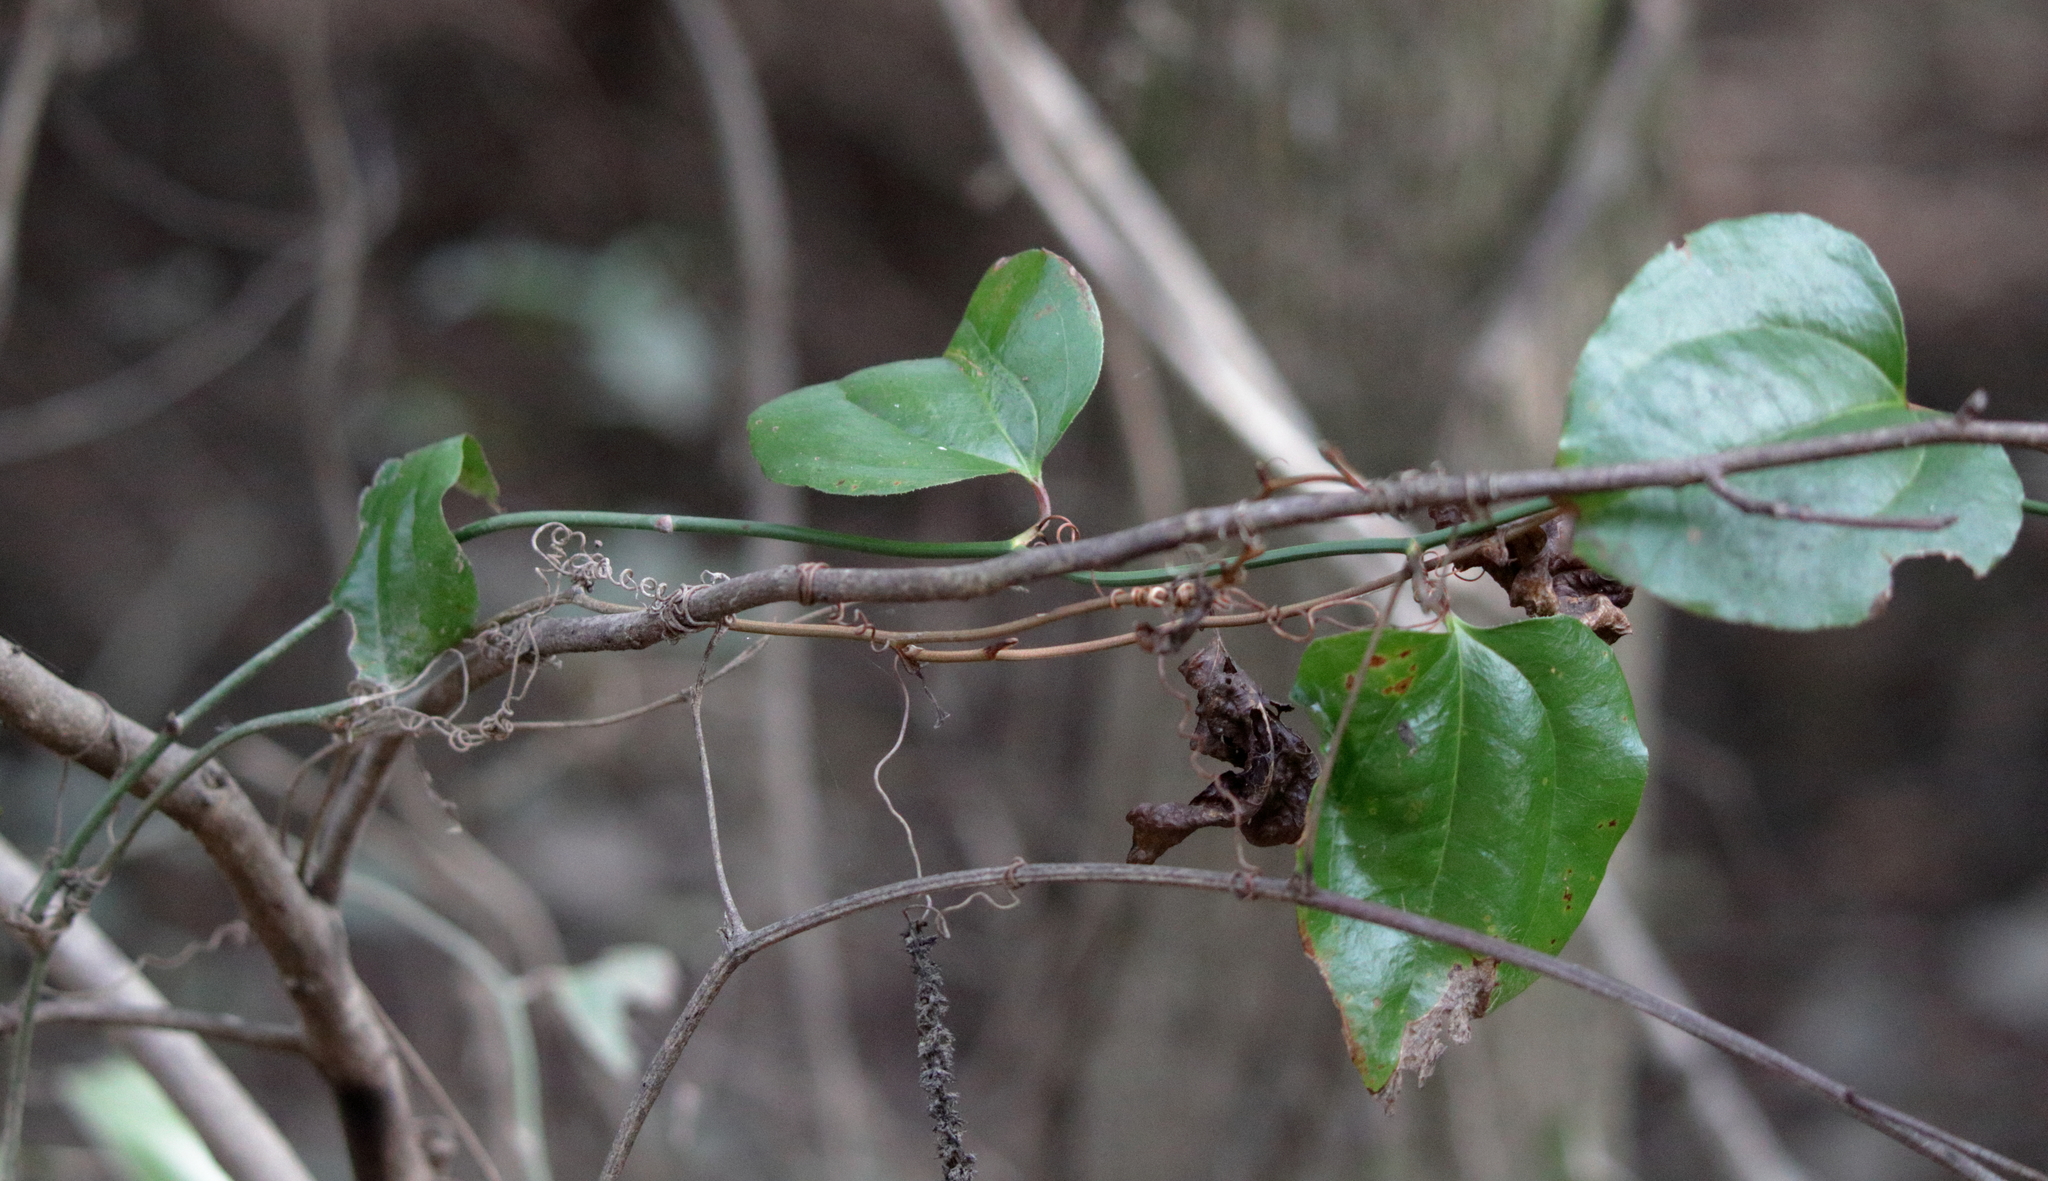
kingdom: Plantae
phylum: Tracheophyta
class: Liliopsida
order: Liliales
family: Smilacaceae
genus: Smilax
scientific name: Smilax rotundifolia
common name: Bullbriar
